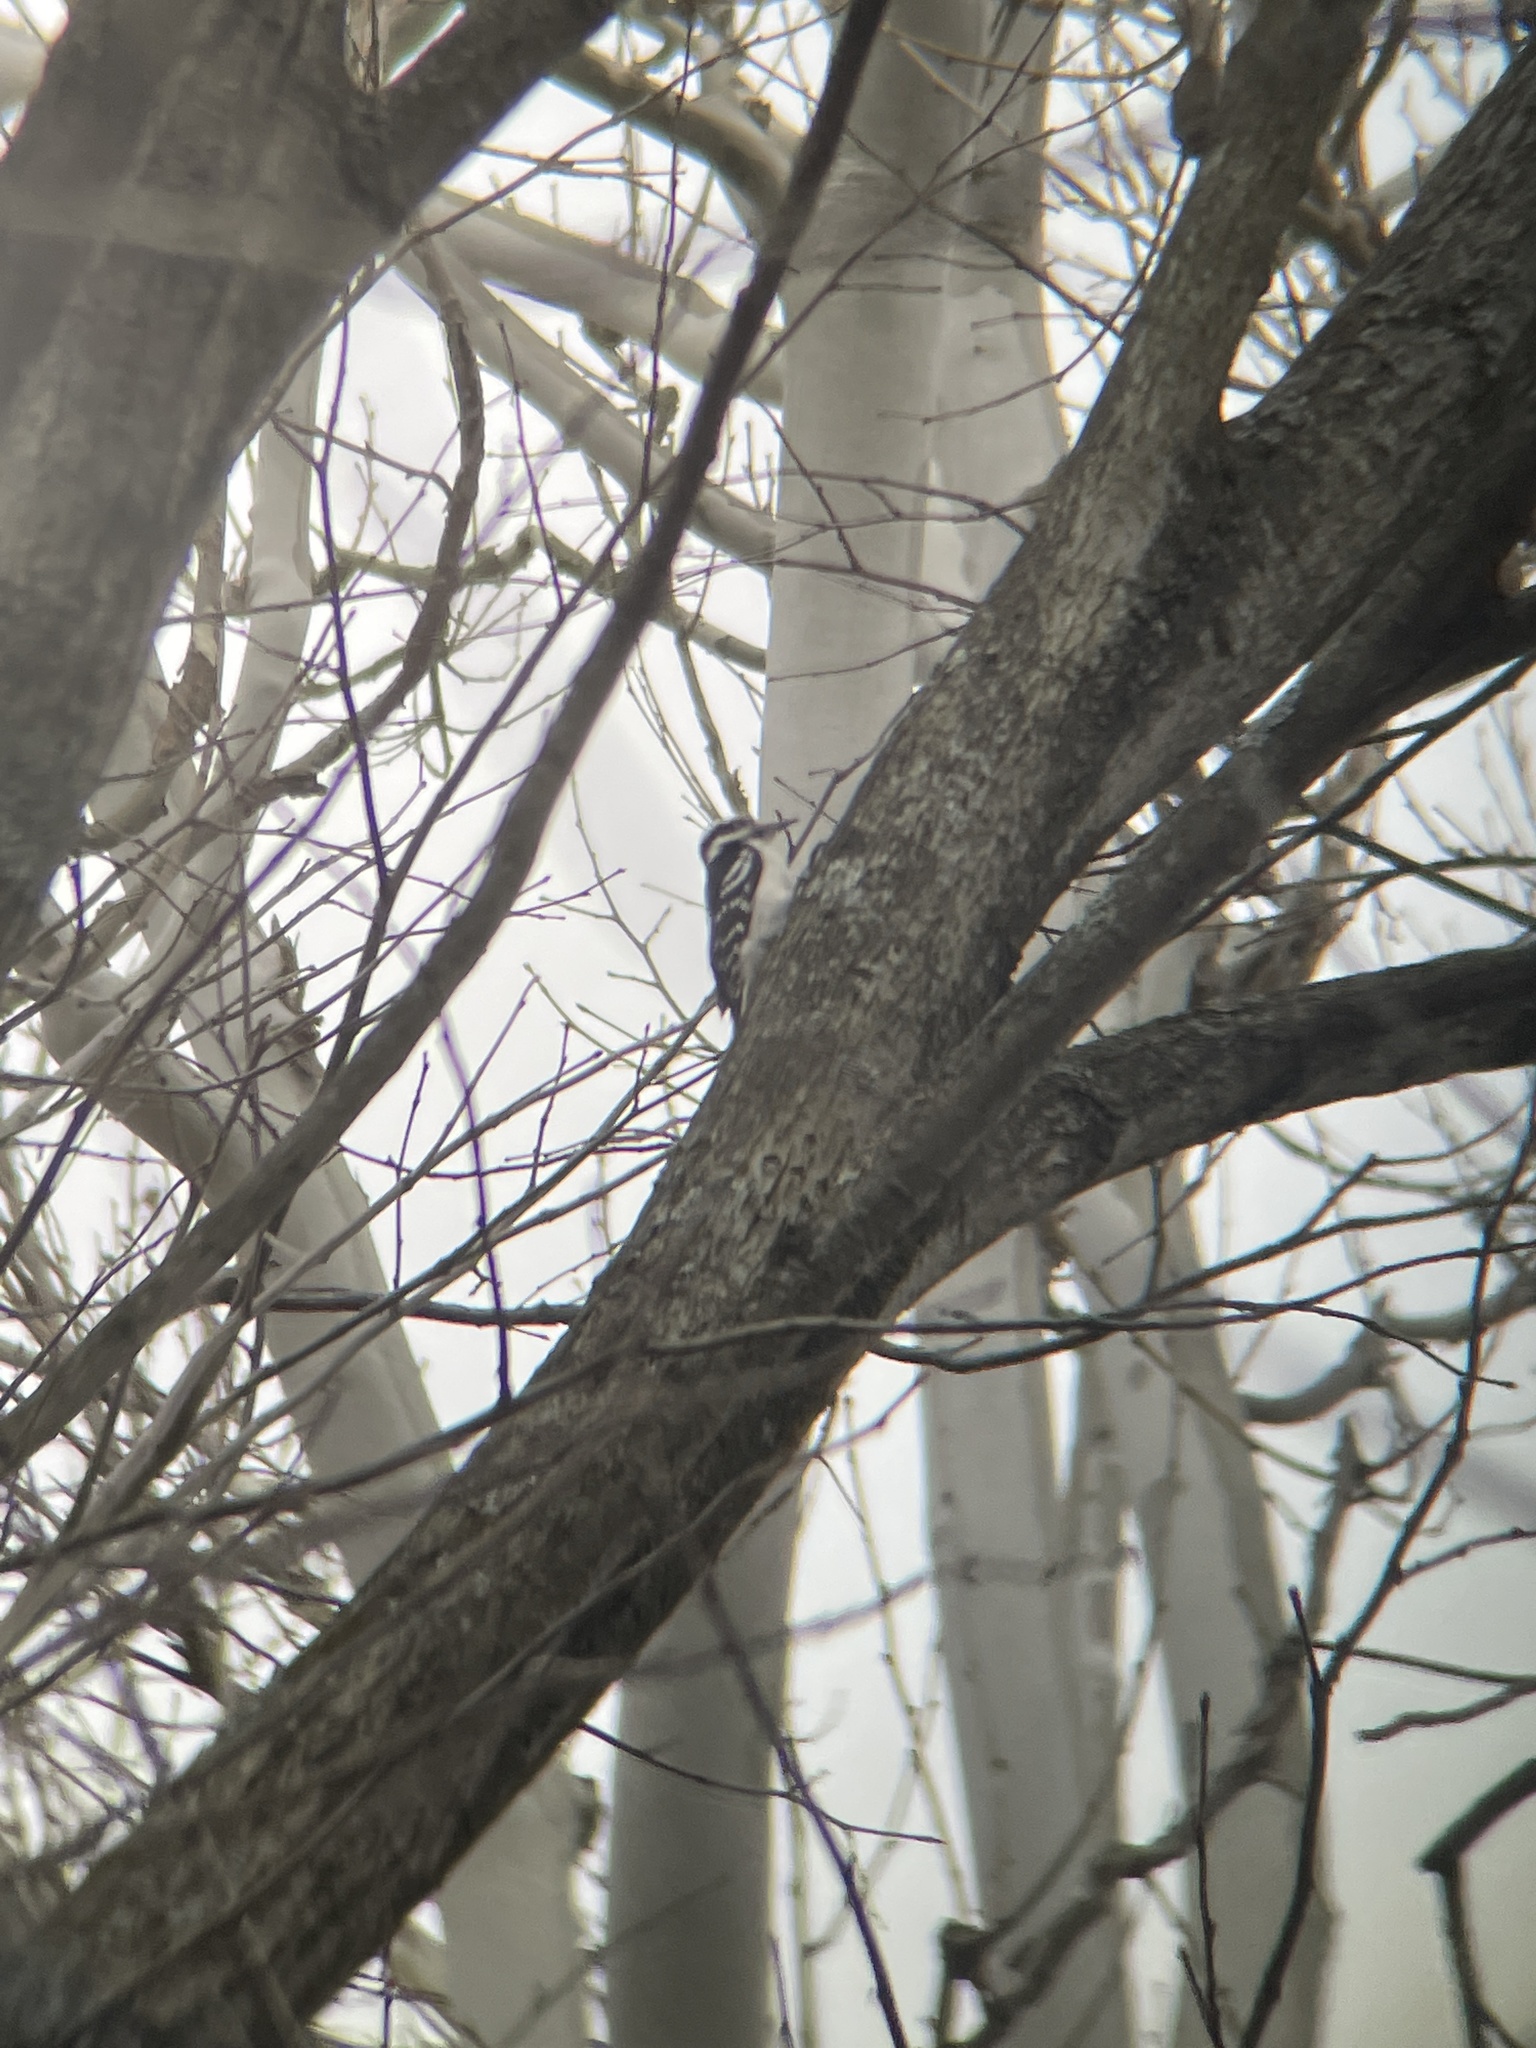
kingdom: Animalia
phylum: Chordata
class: Aves
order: Piciformes
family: Picidae
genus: Leuconotopicus
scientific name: Leuconotopicus villosus
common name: Hairy woodpecker
